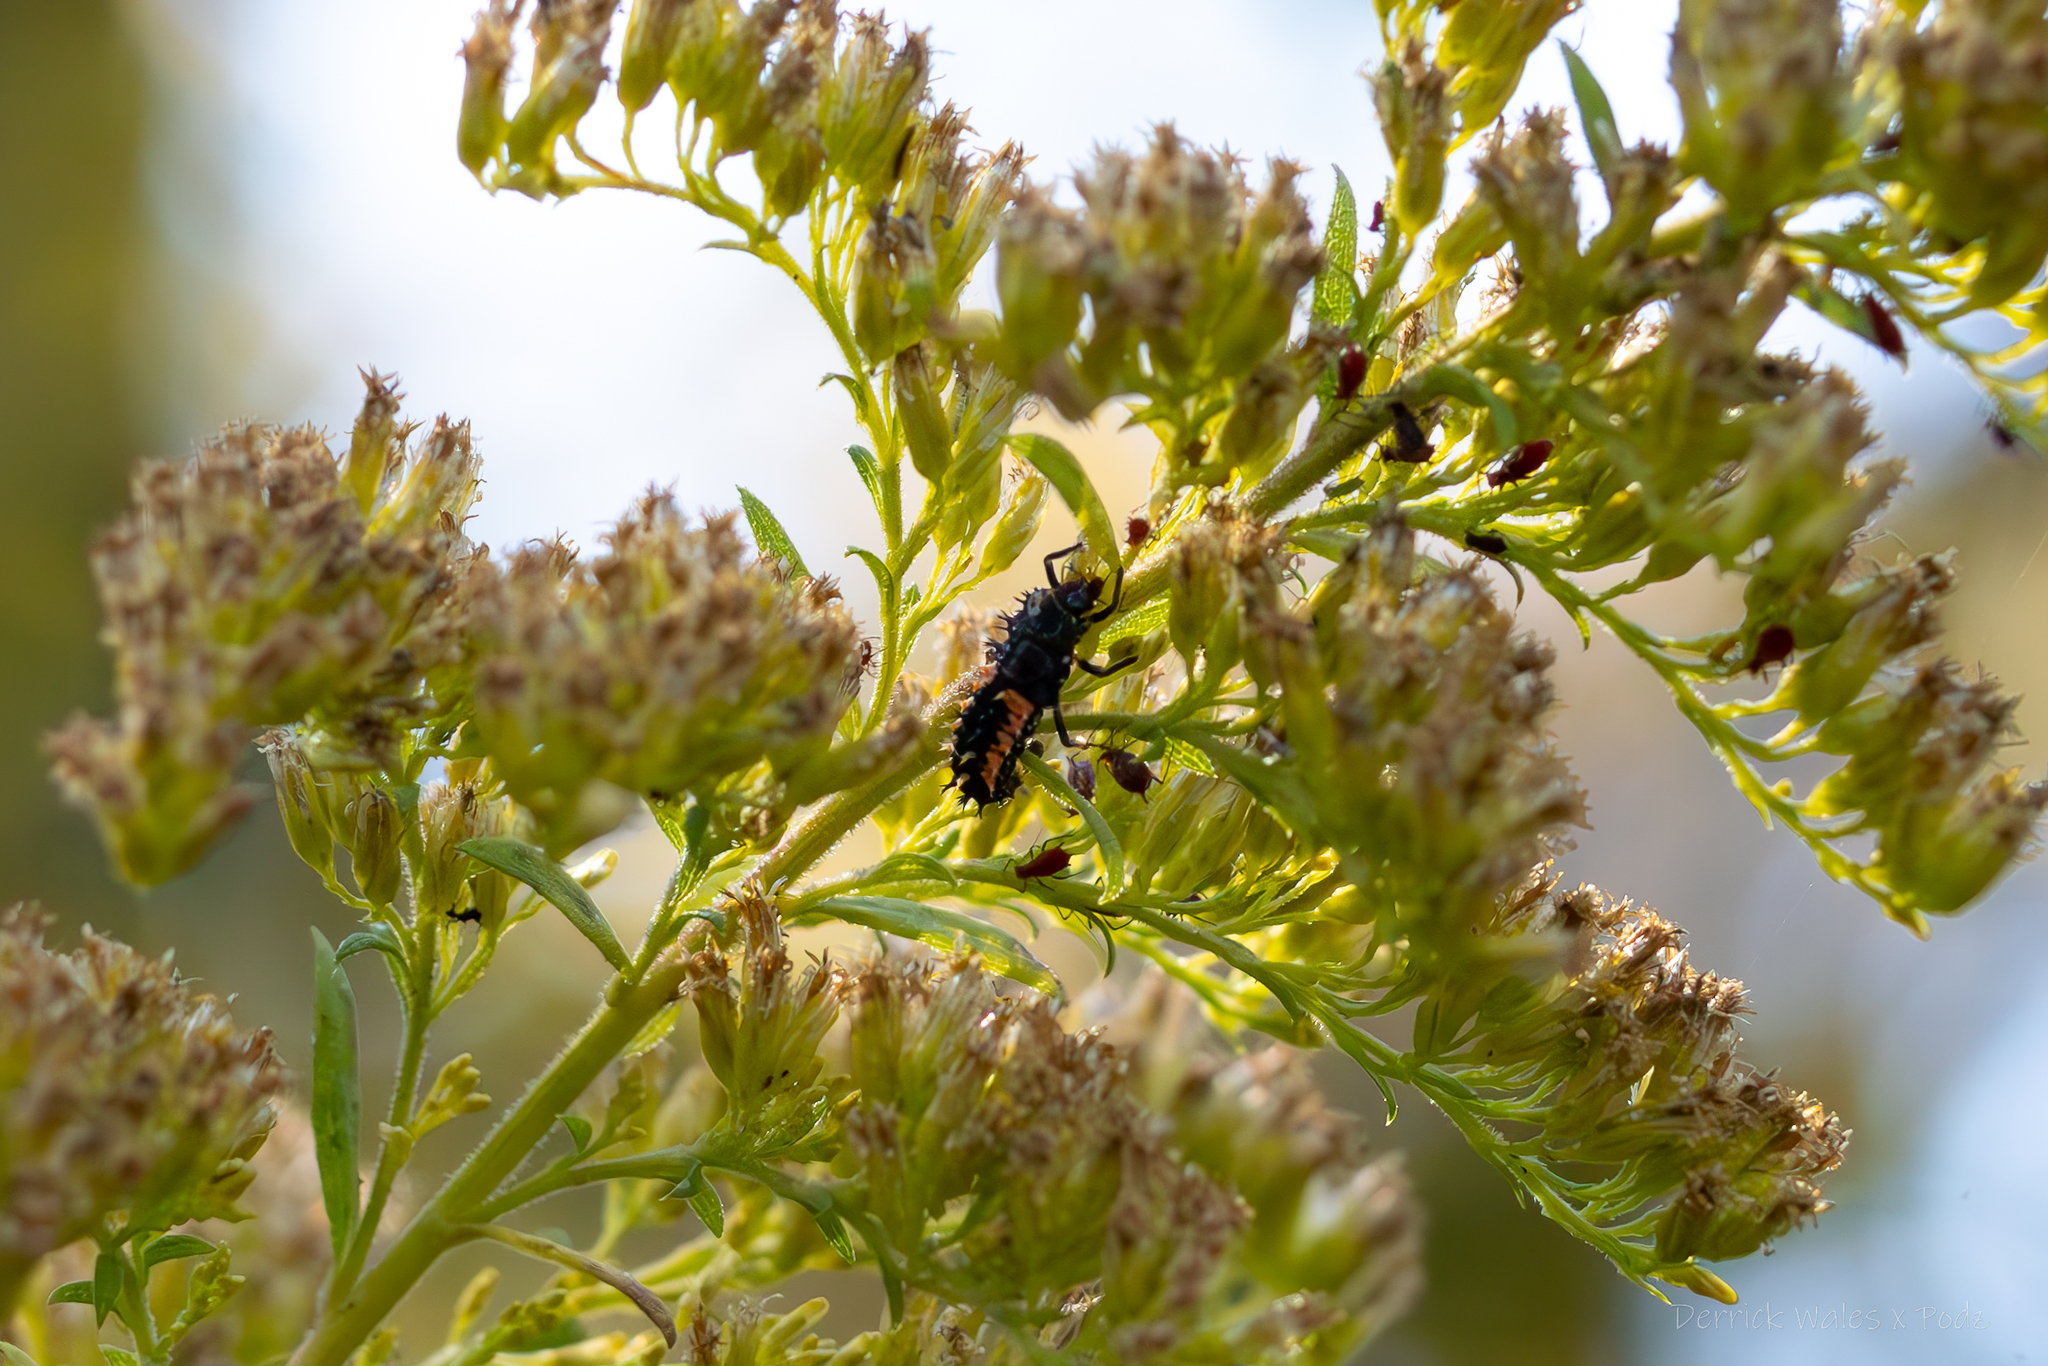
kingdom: Animalia
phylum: Arthropoda
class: Insecta
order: Coleoptera
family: Coccinellidae
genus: Harmonia
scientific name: Harmonia axyridis
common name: Harlequin ladybird
